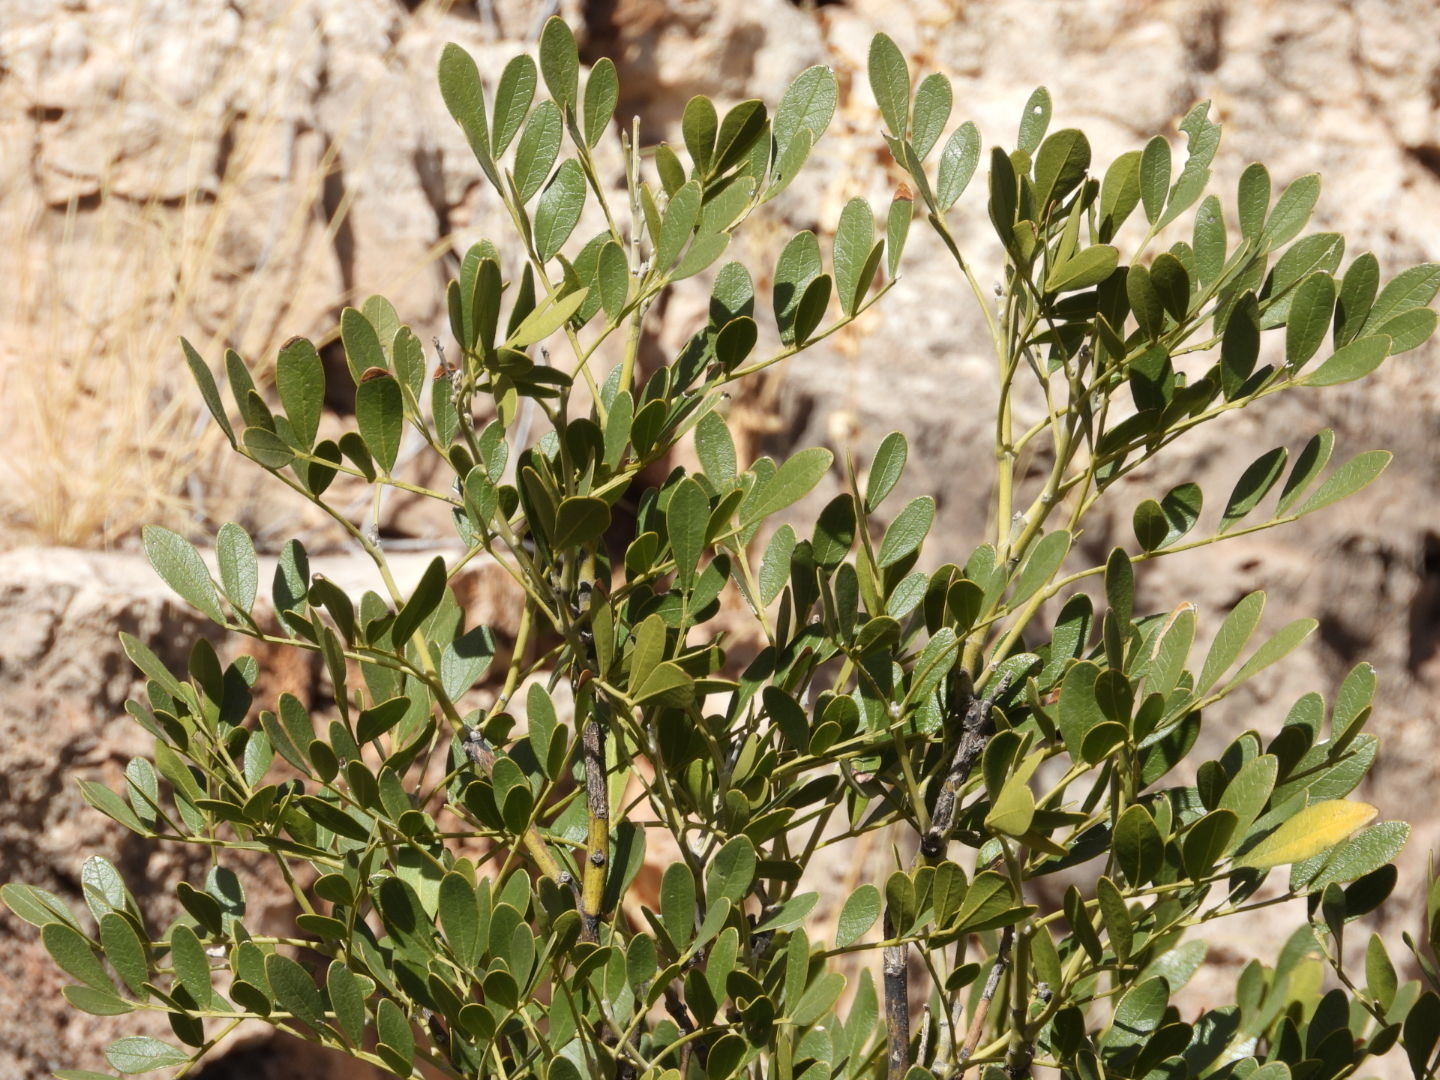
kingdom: Plantae
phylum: Tracheophyta
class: Magnoliopsida
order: Fabales
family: Fabaceae
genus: Dermatophyllum
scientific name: Dermatophyllum secundiflorum
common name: Texas-mountain-laurel
